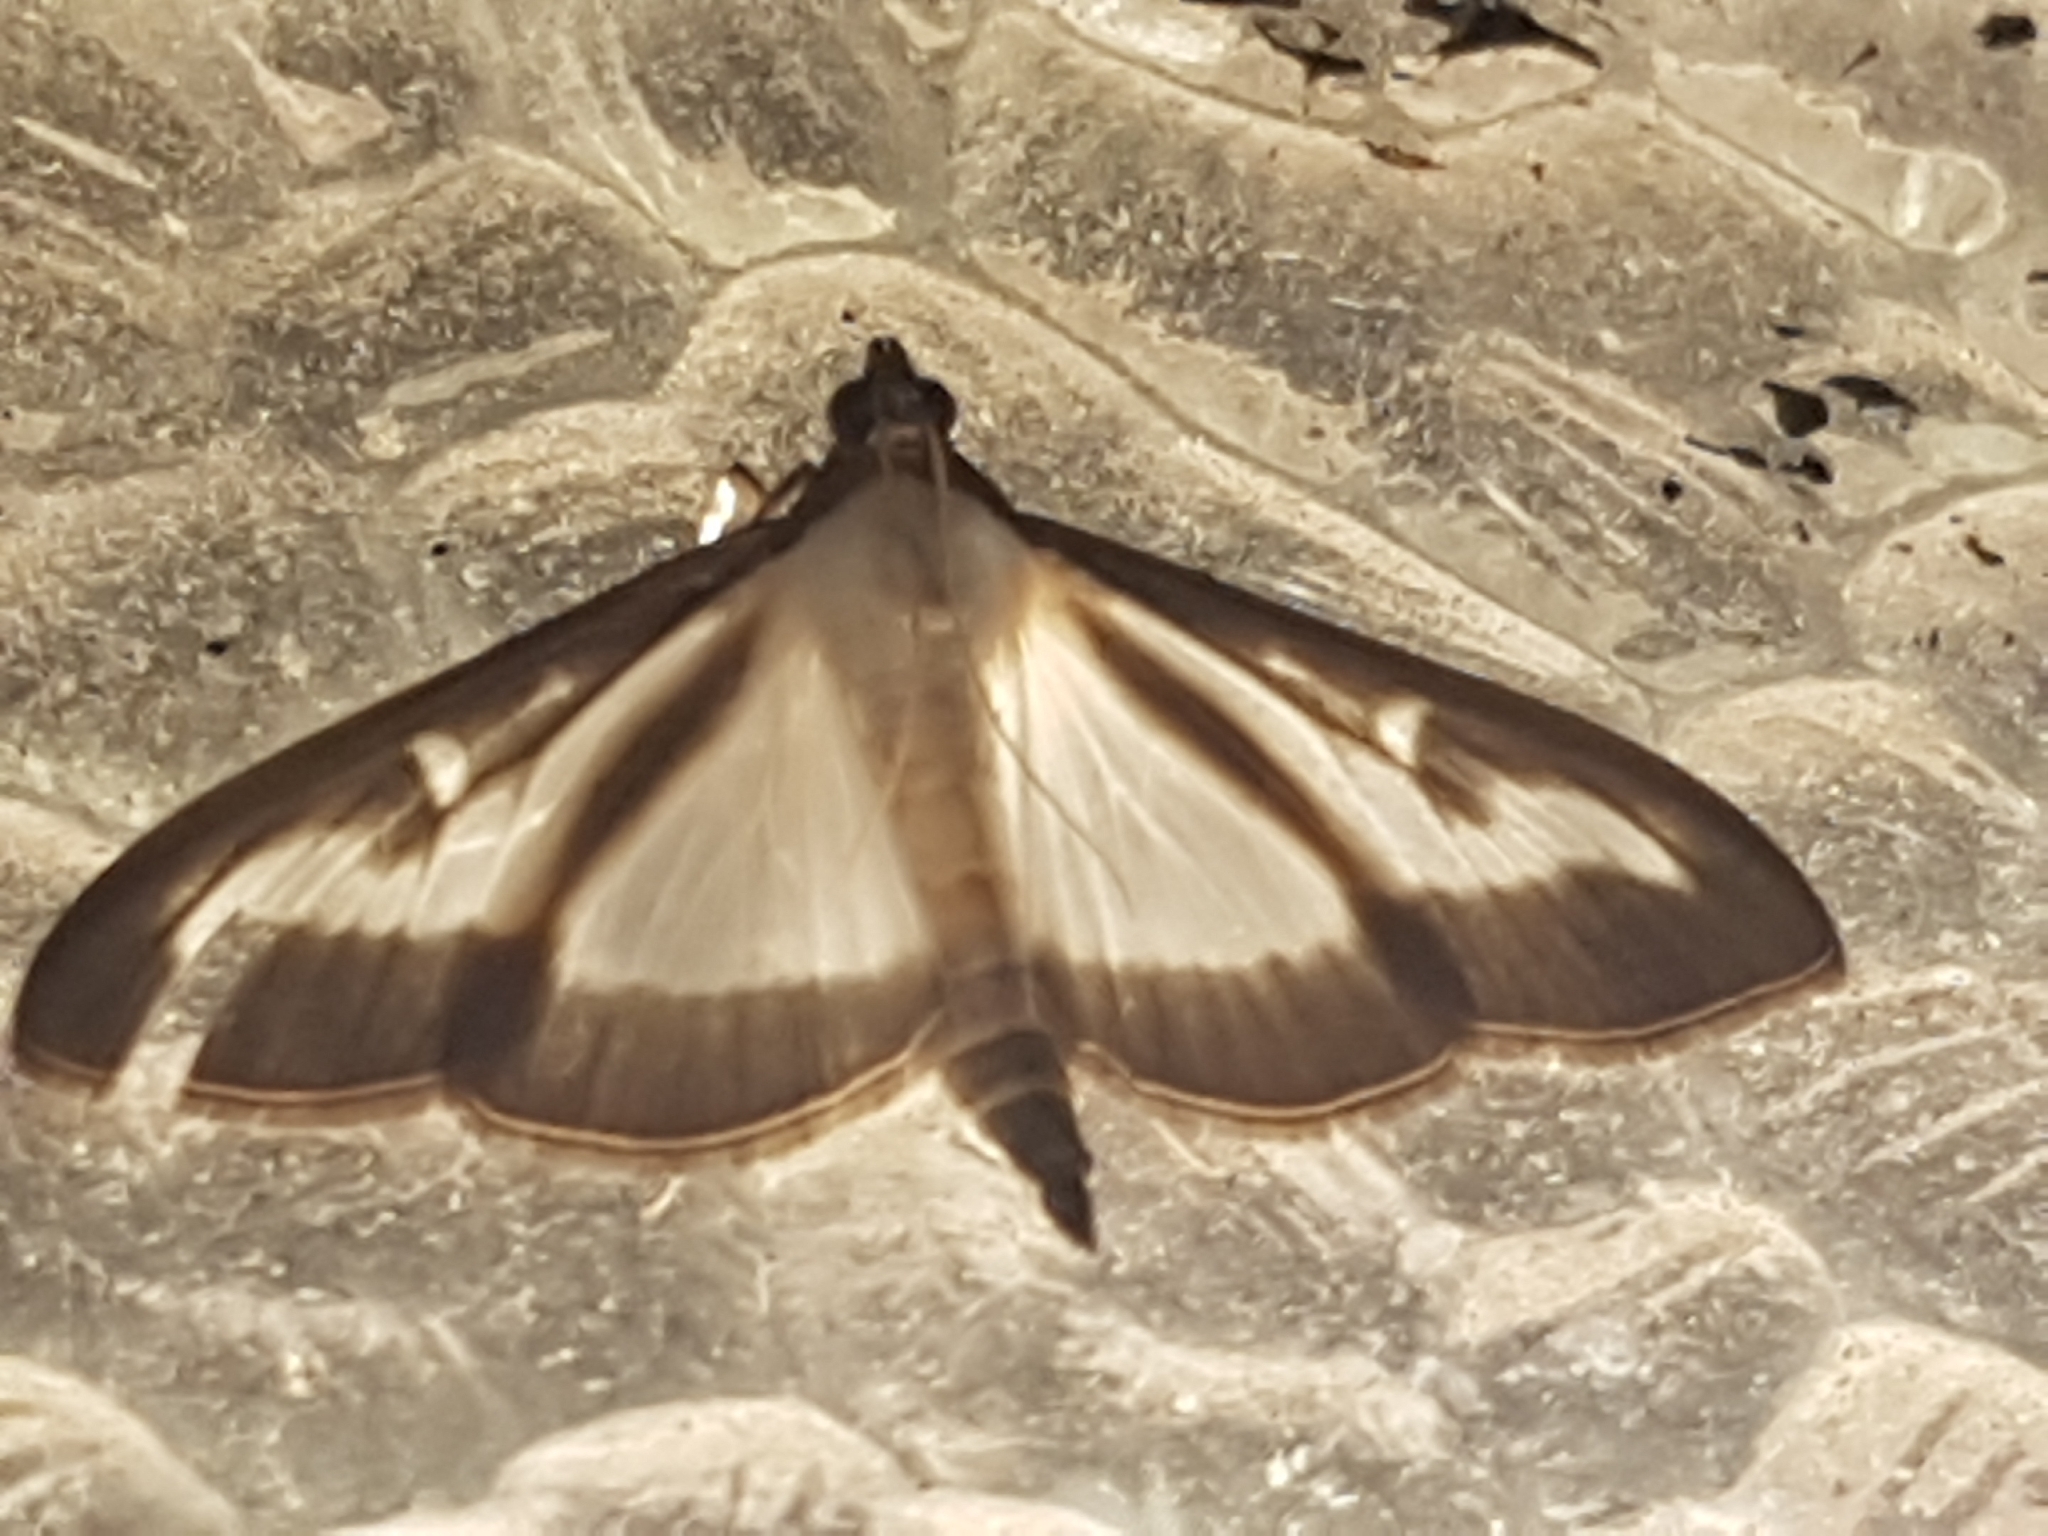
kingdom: Animalia
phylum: Arthropoda
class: Insecta
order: Lepidoptera
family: Crambidae
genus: Cydalima
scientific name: Cydalima perspectalis
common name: Box tree moth
